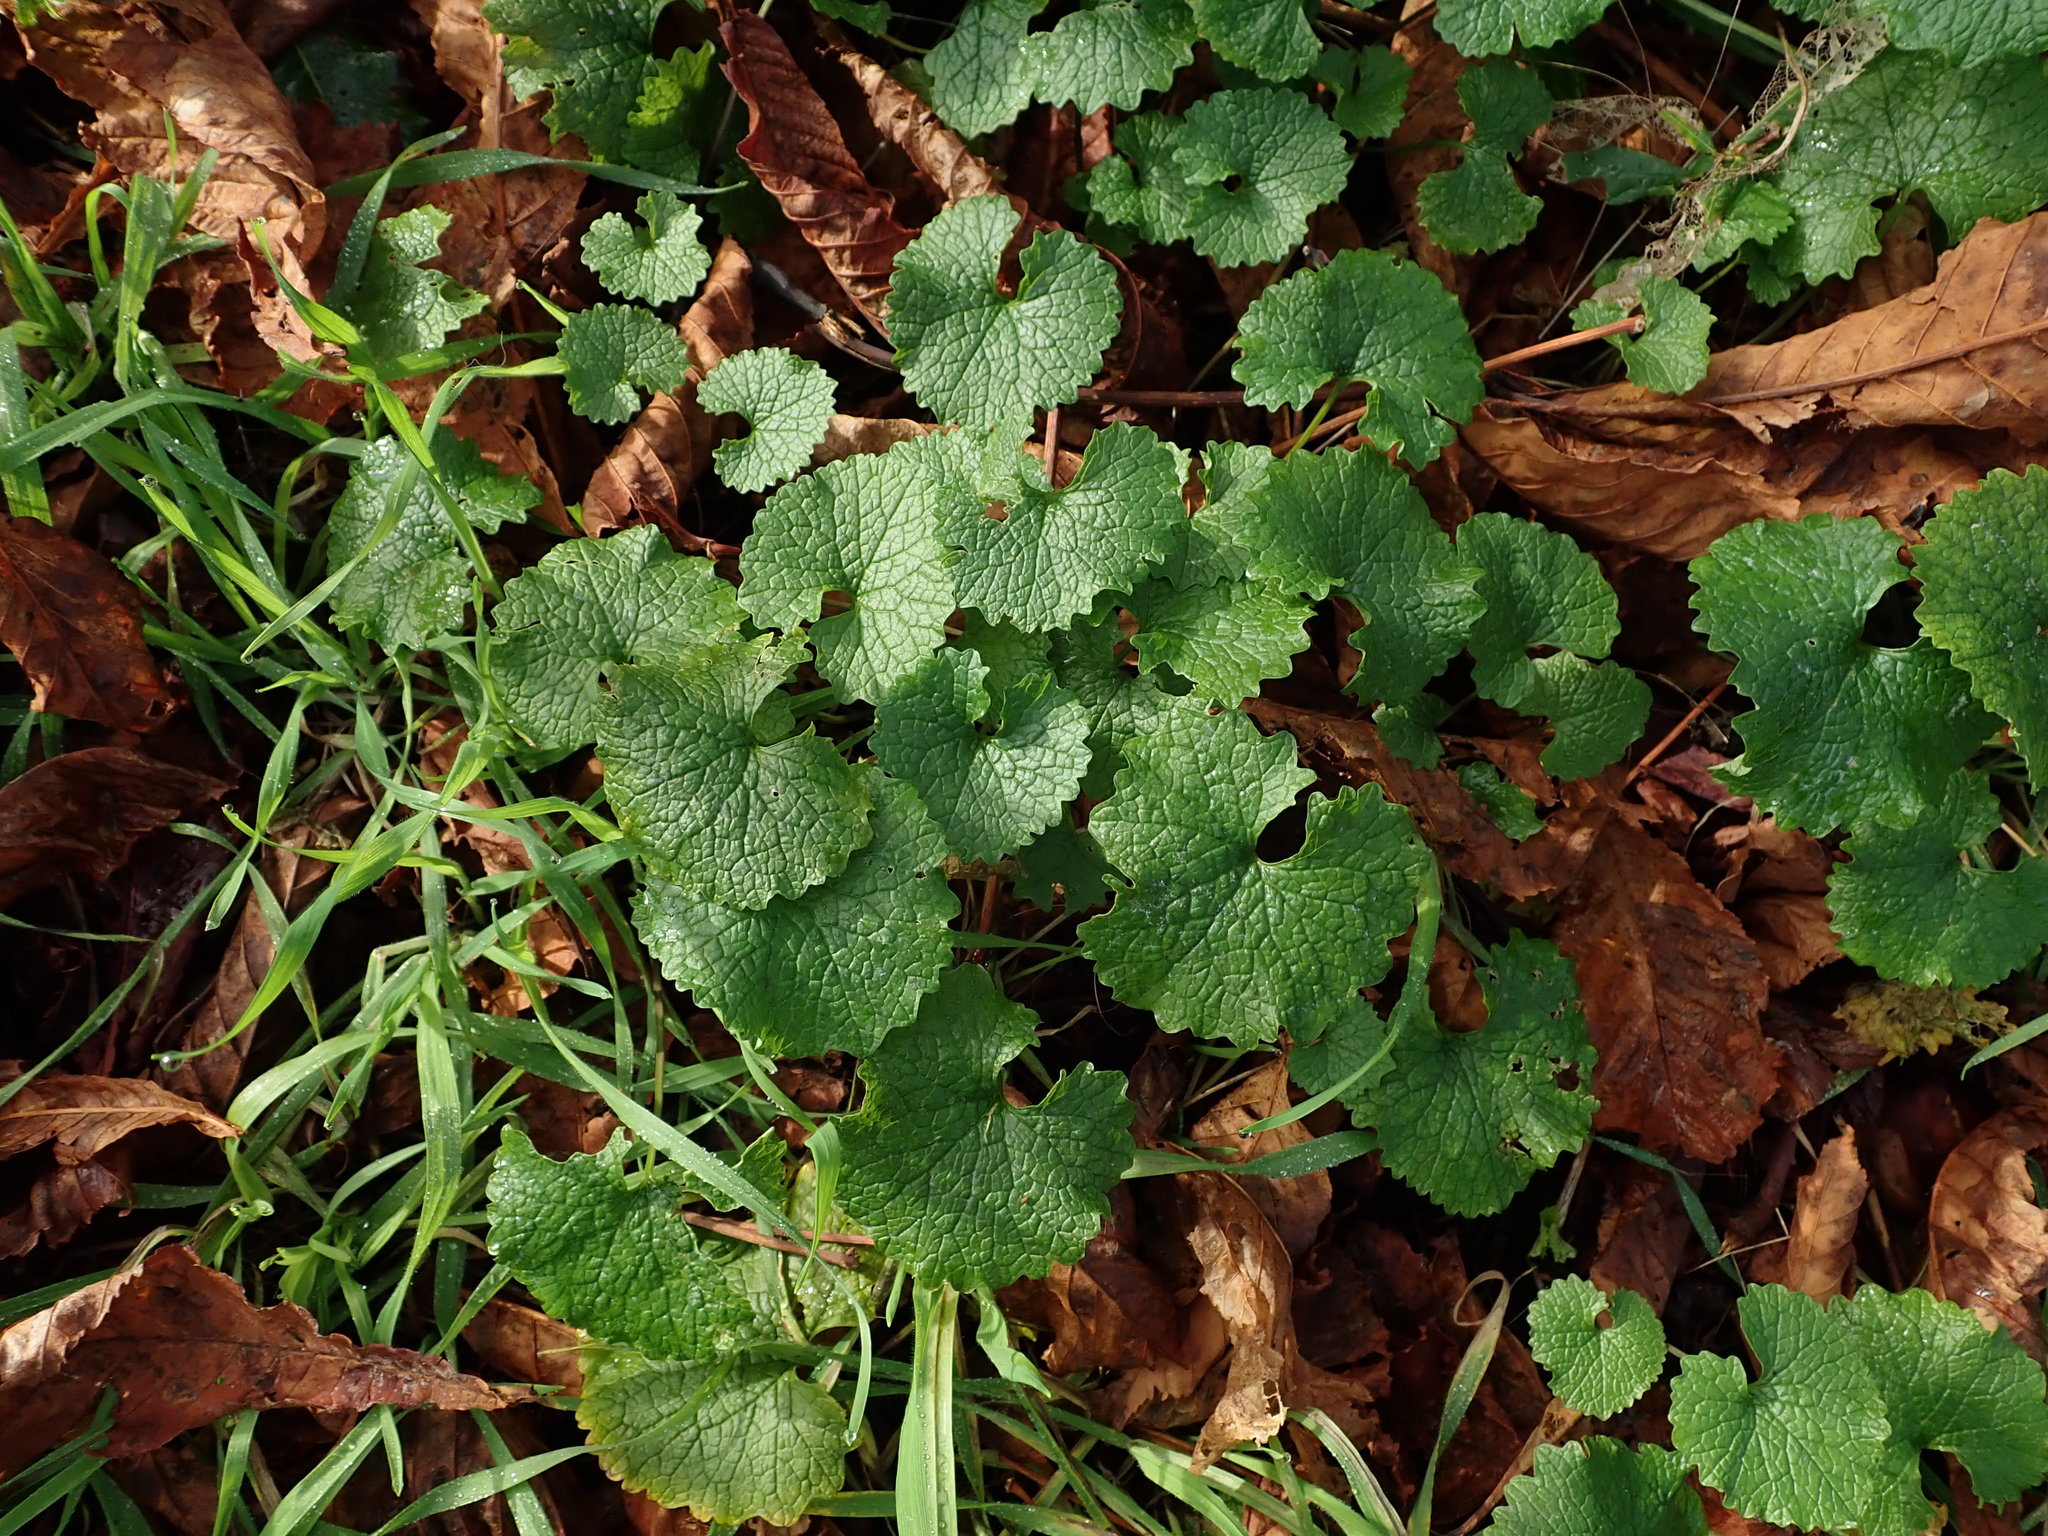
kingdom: Plantae
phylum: Tracheophyta
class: Magnoliopsida
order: Brassicales
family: Brassicaceae
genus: Alliaria
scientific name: Alliaria petiolata
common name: Garlic mustard
